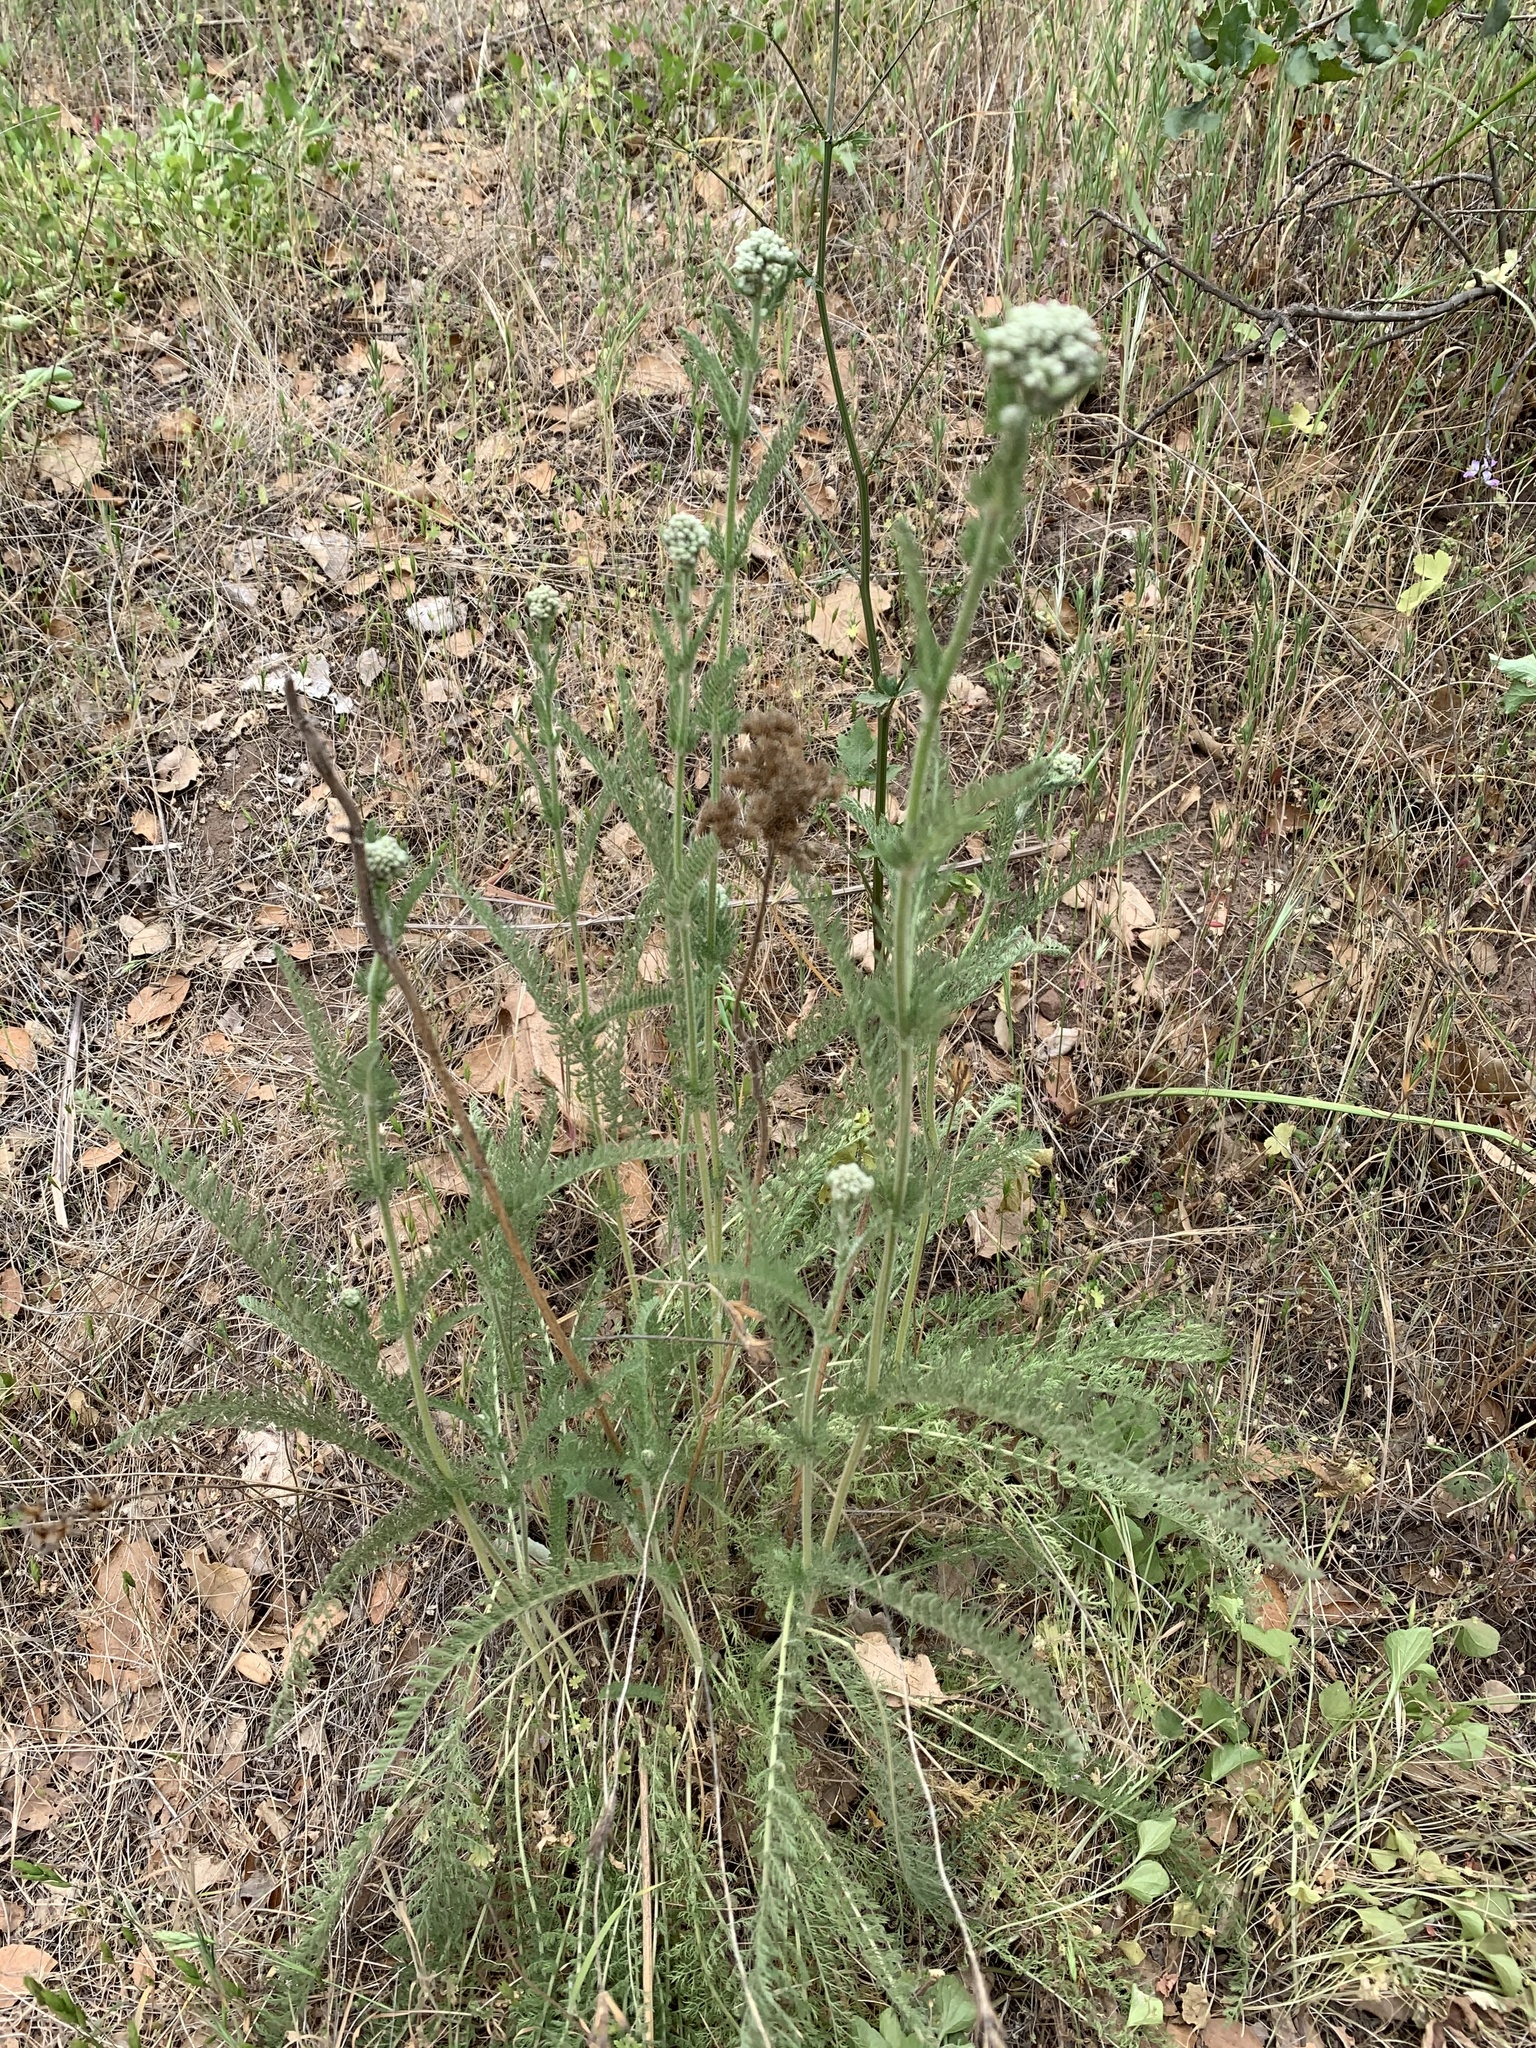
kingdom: Plantae
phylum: Tracheophyta
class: Magnoliopsida
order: Asterales
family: Asteraceae
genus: Achillea
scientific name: Achillea millefolium
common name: Yarrow
